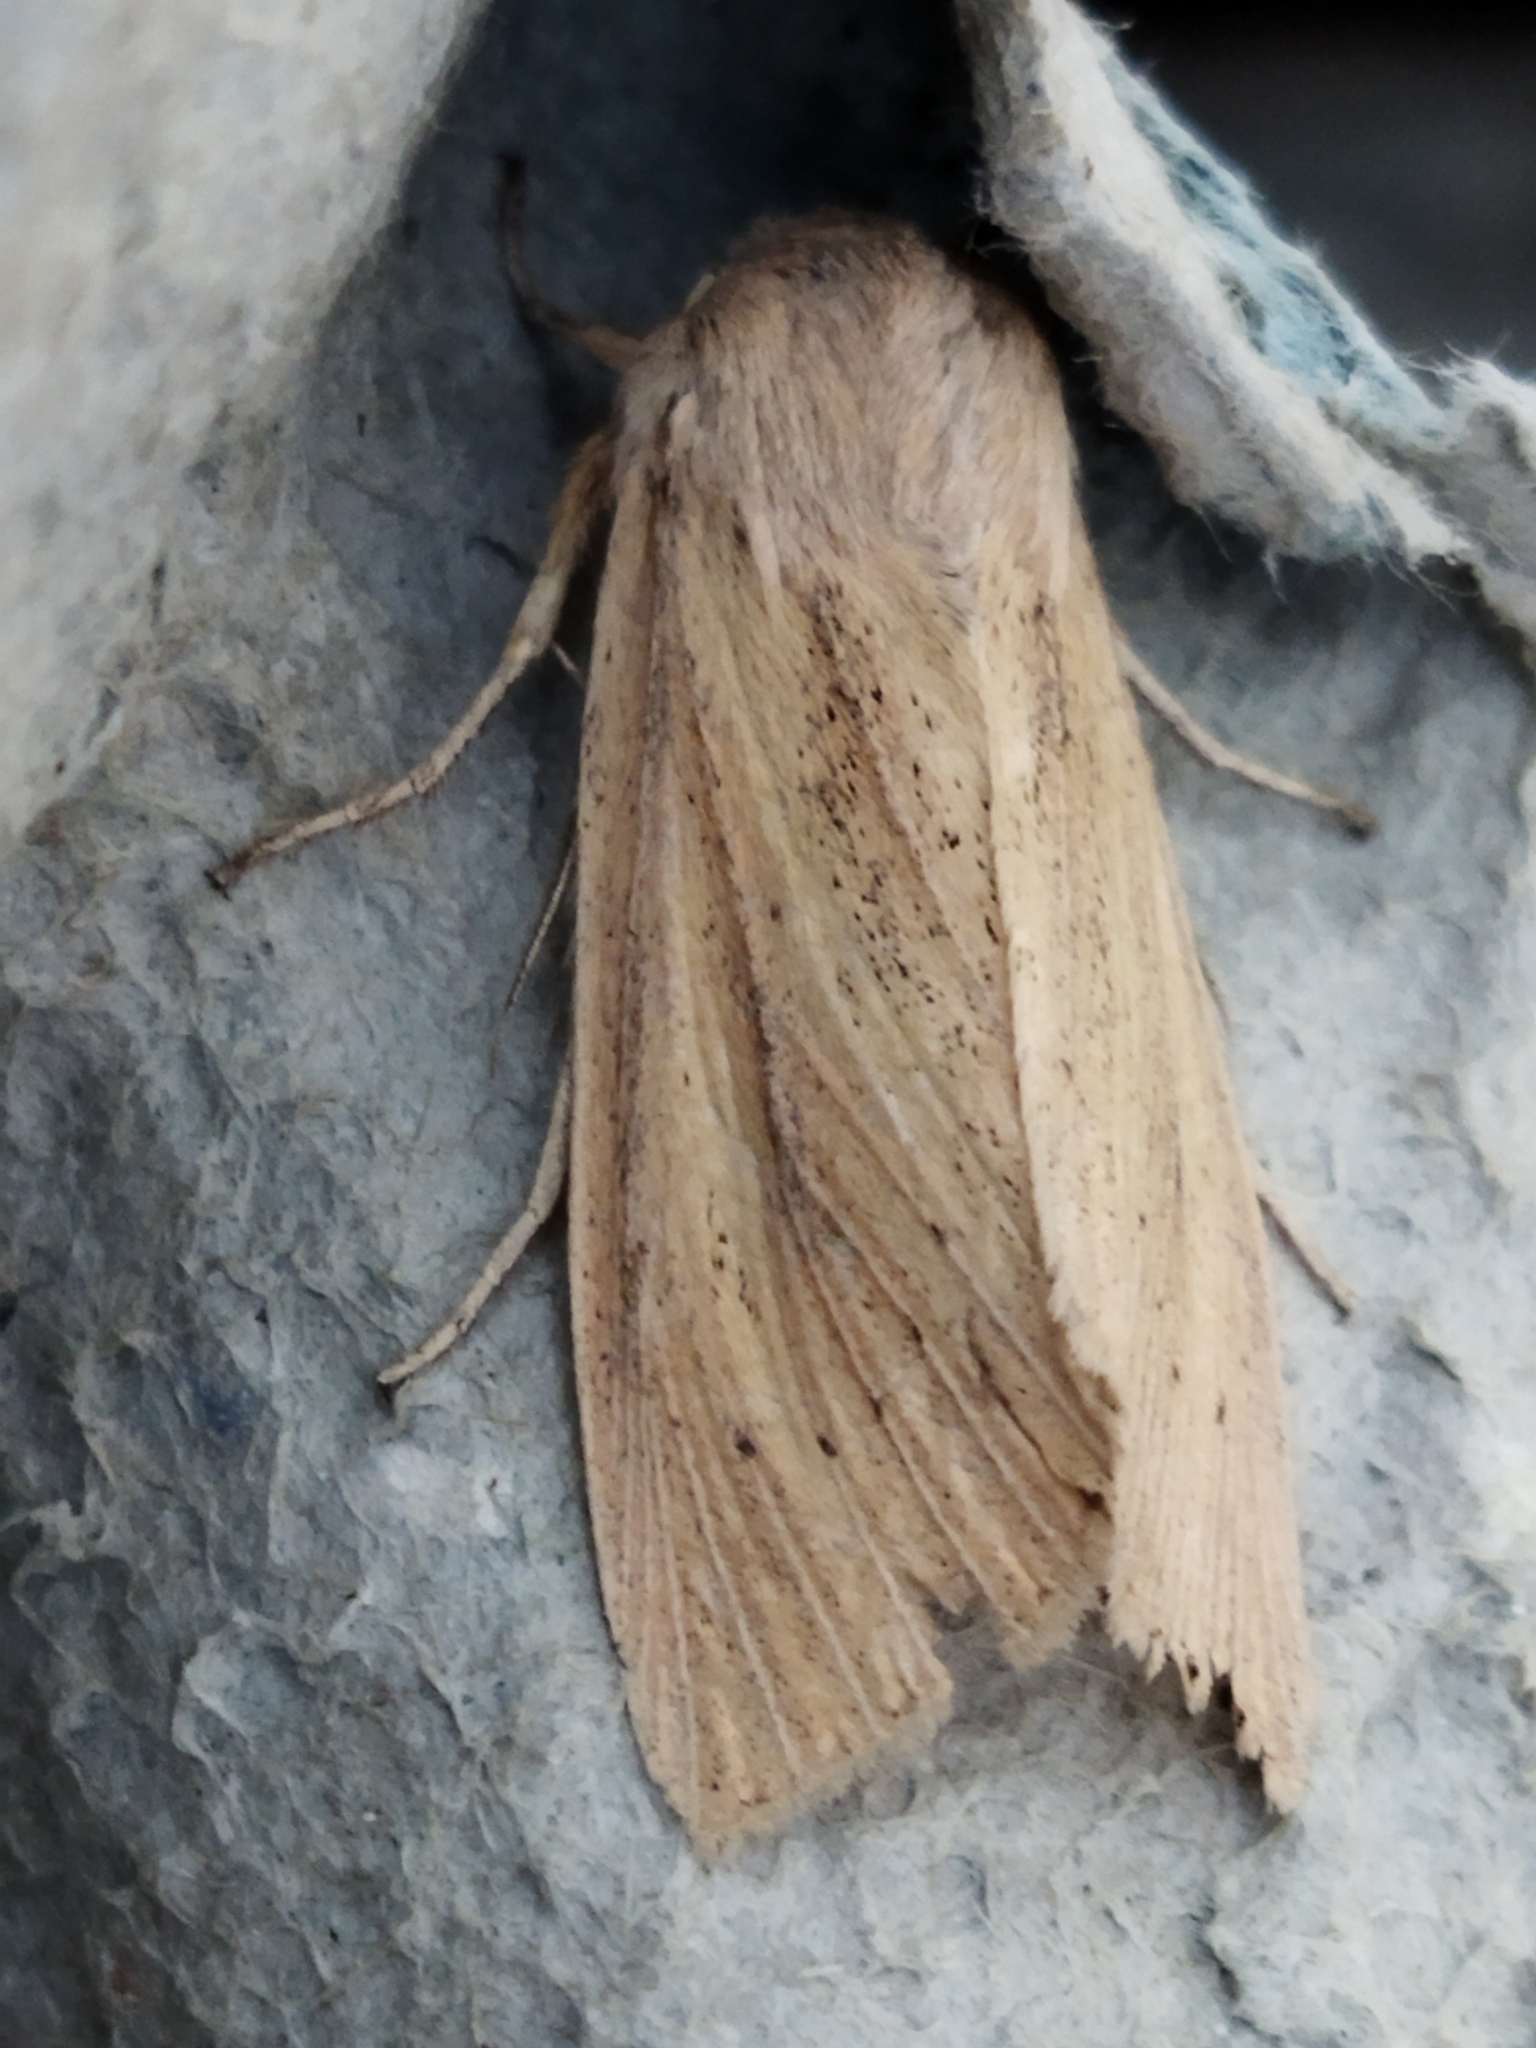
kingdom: Animalia
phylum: Arthropoda
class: Insecta
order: Lepidoptera
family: Noctuidae
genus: Rhizedra
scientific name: Rhizedra lutosa
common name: Large wainscot
